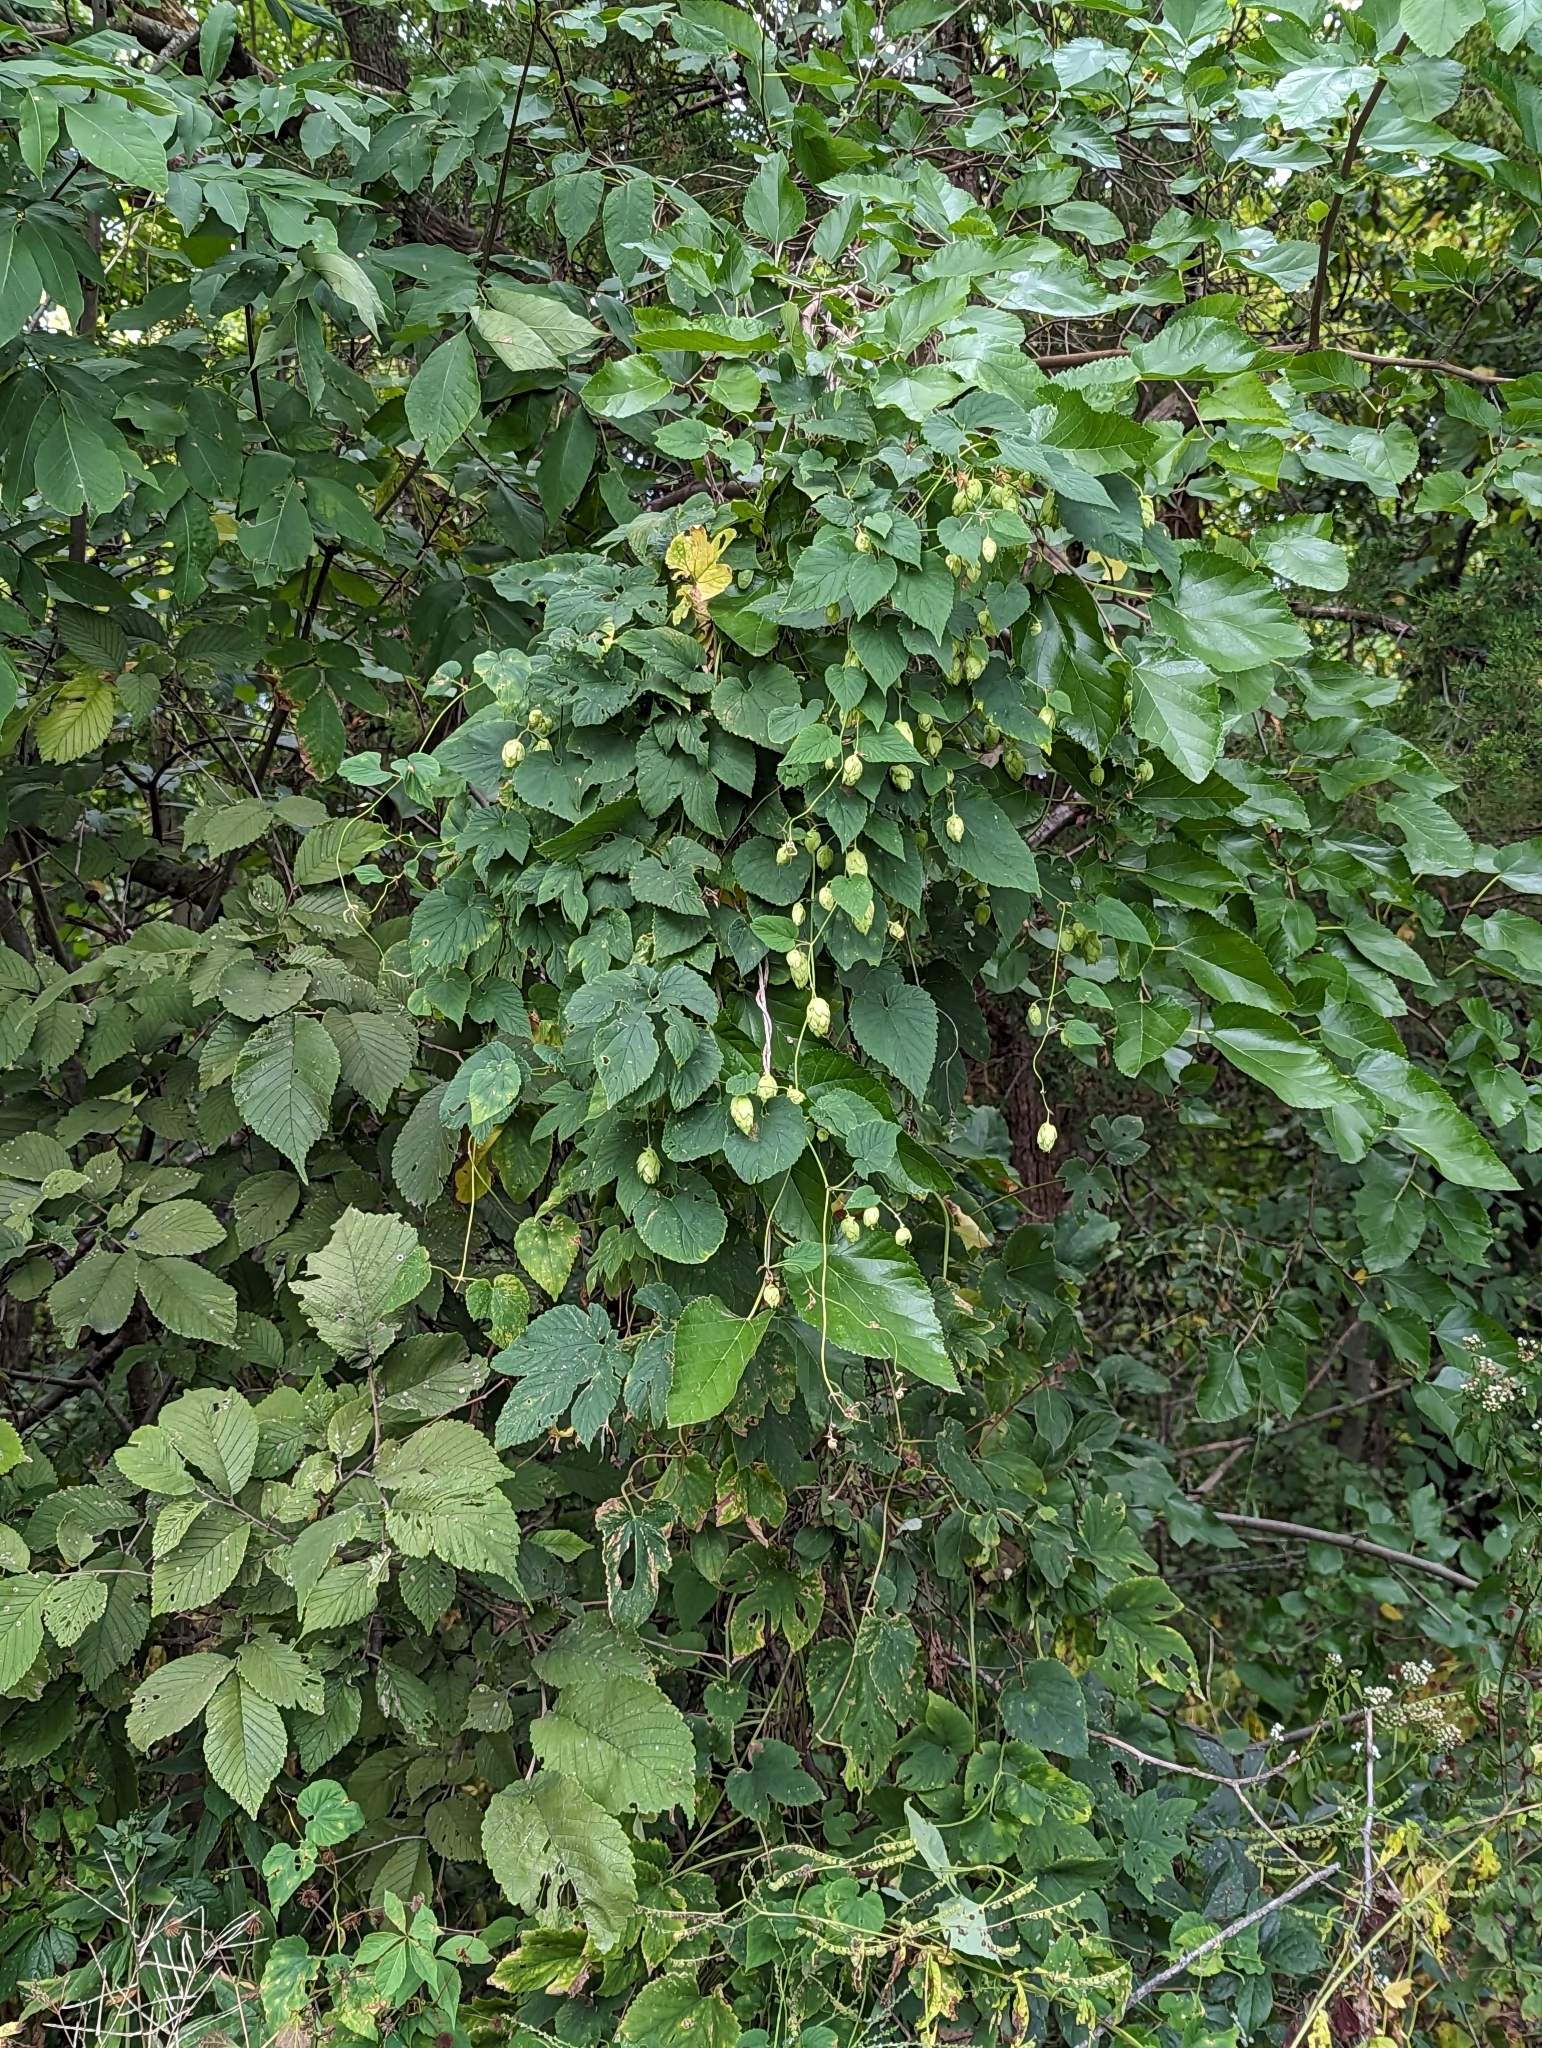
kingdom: Plantae
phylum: Tracheophyta
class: Magnoliopsida
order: Rosales
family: Cannabaceae
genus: Humulus
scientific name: Humulus lupulus
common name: Hop
